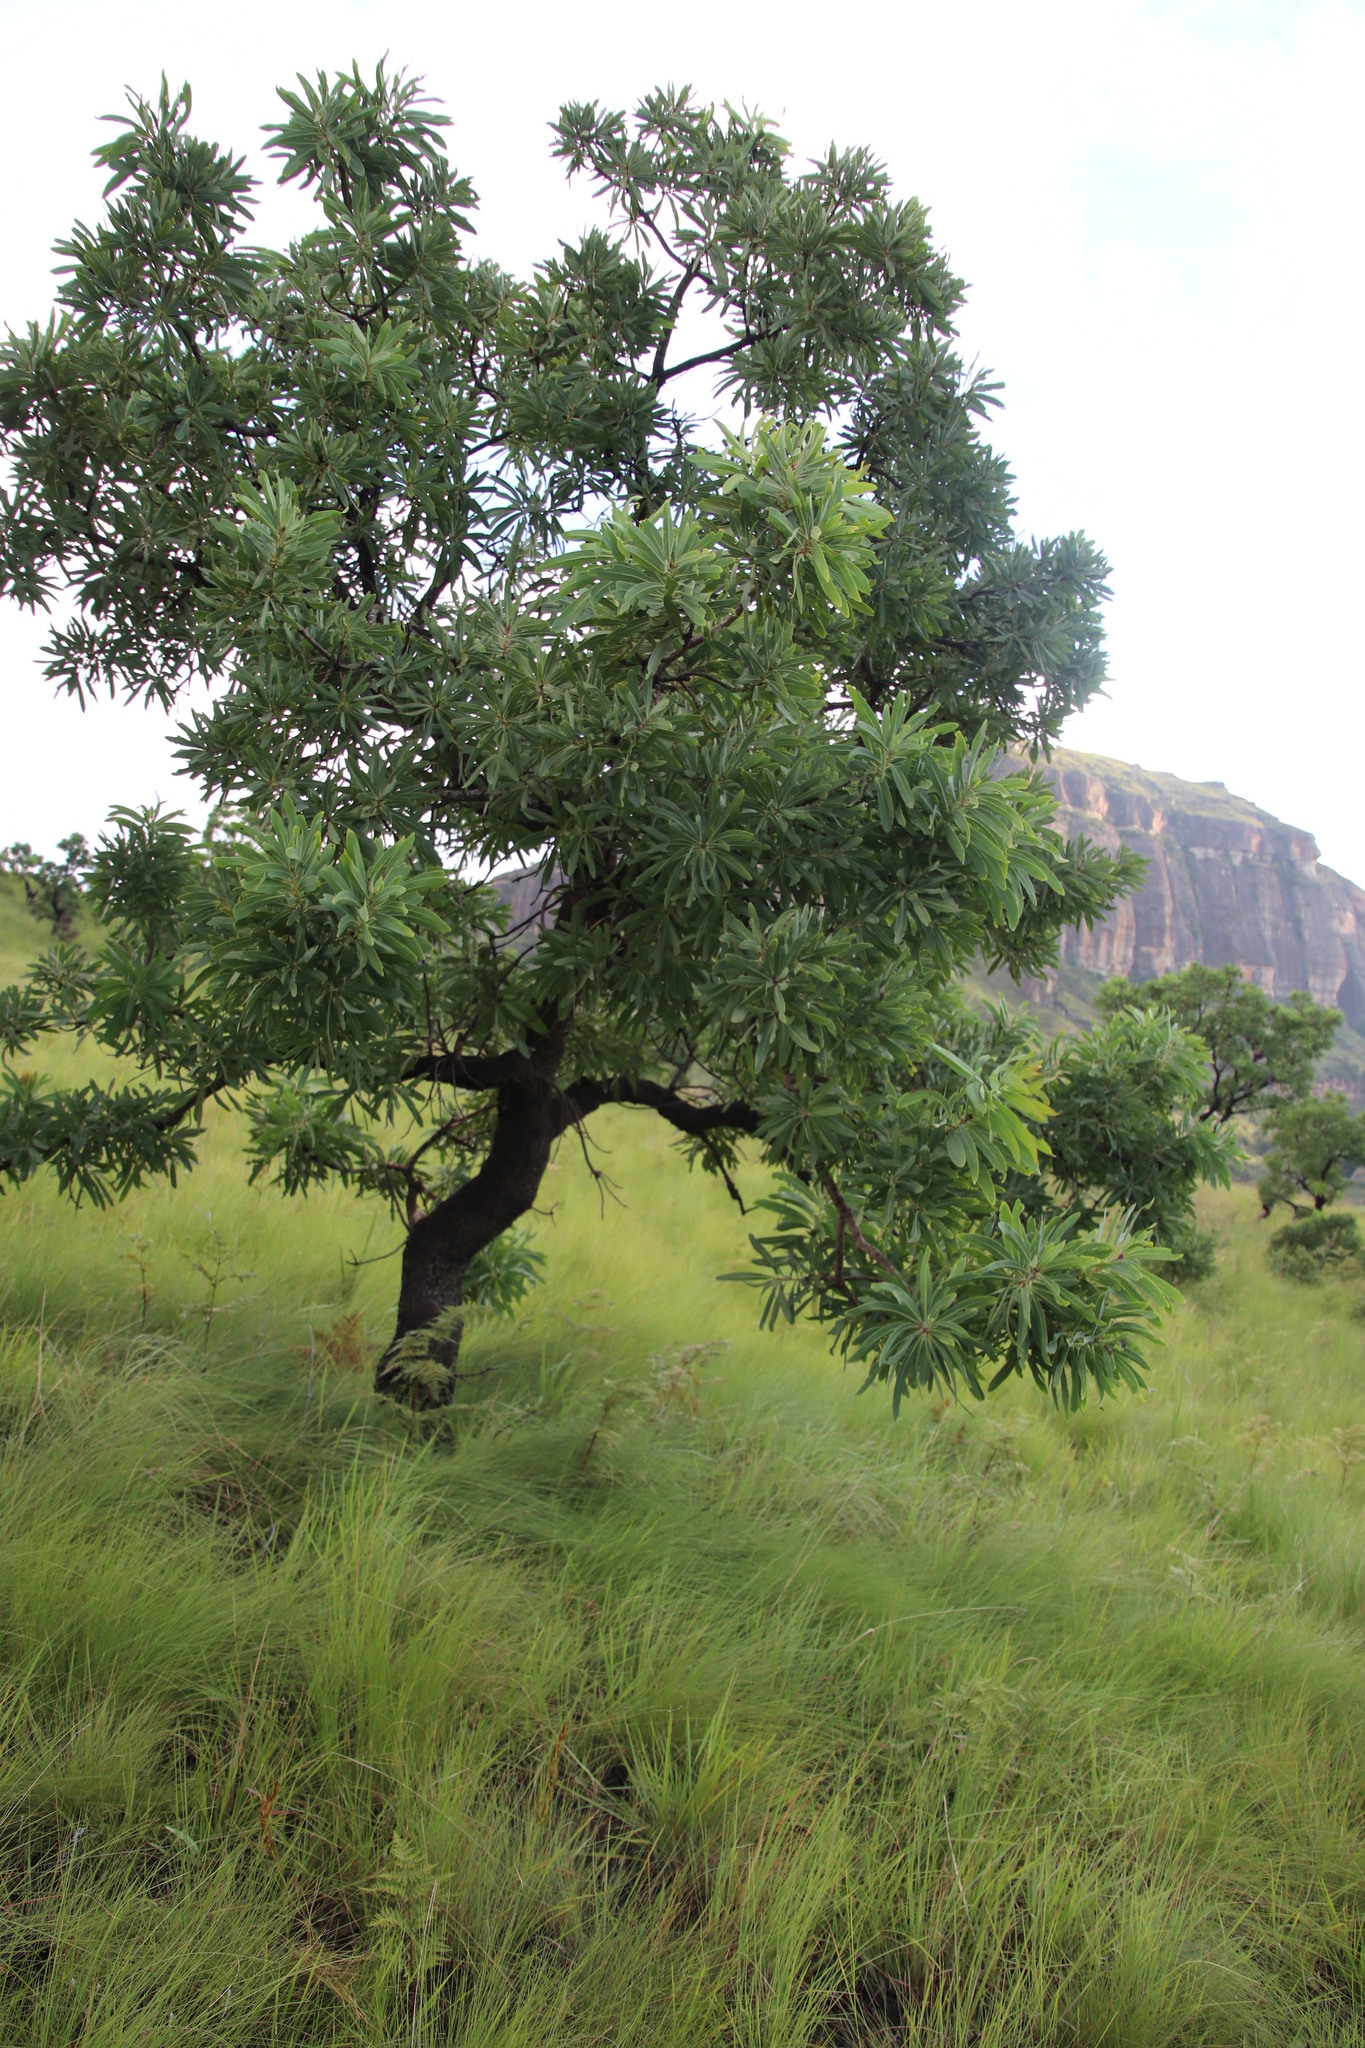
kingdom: Plantae
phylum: Tracheophyta
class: Magnoliopsida
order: Proteales
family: Proteaceae
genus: Protea
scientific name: Protea caffra
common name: Common sugarbush
